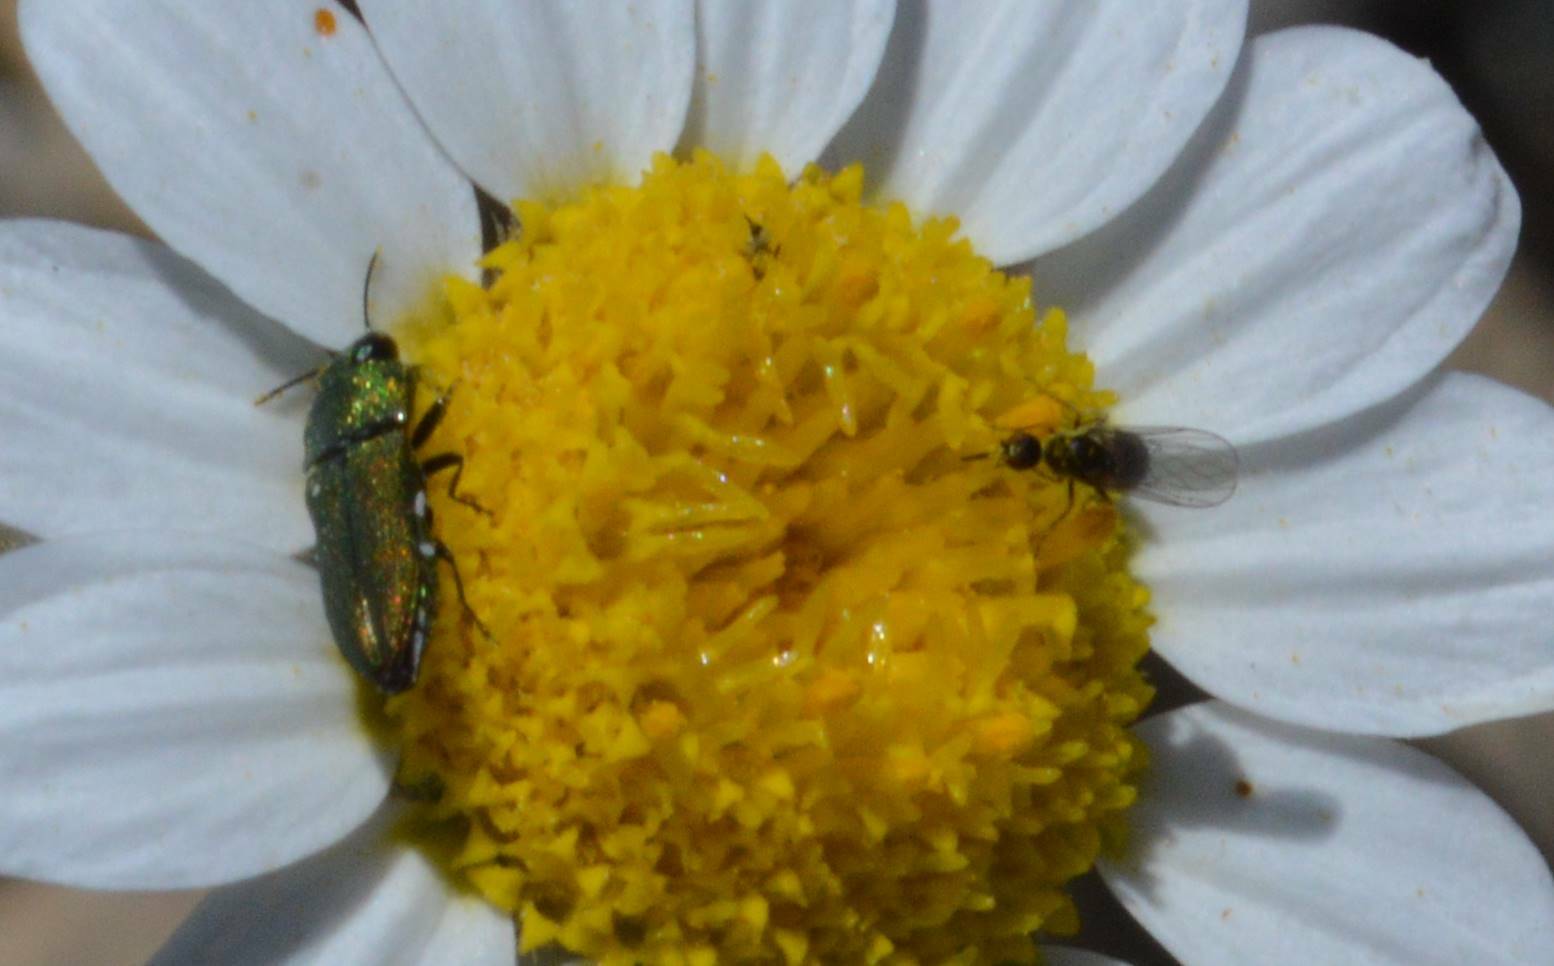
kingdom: Animalia
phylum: Arthropoda
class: Insecta
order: Coleoptera
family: Buprestidae
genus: Anthaxia
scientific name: Anthaxia millefolii
